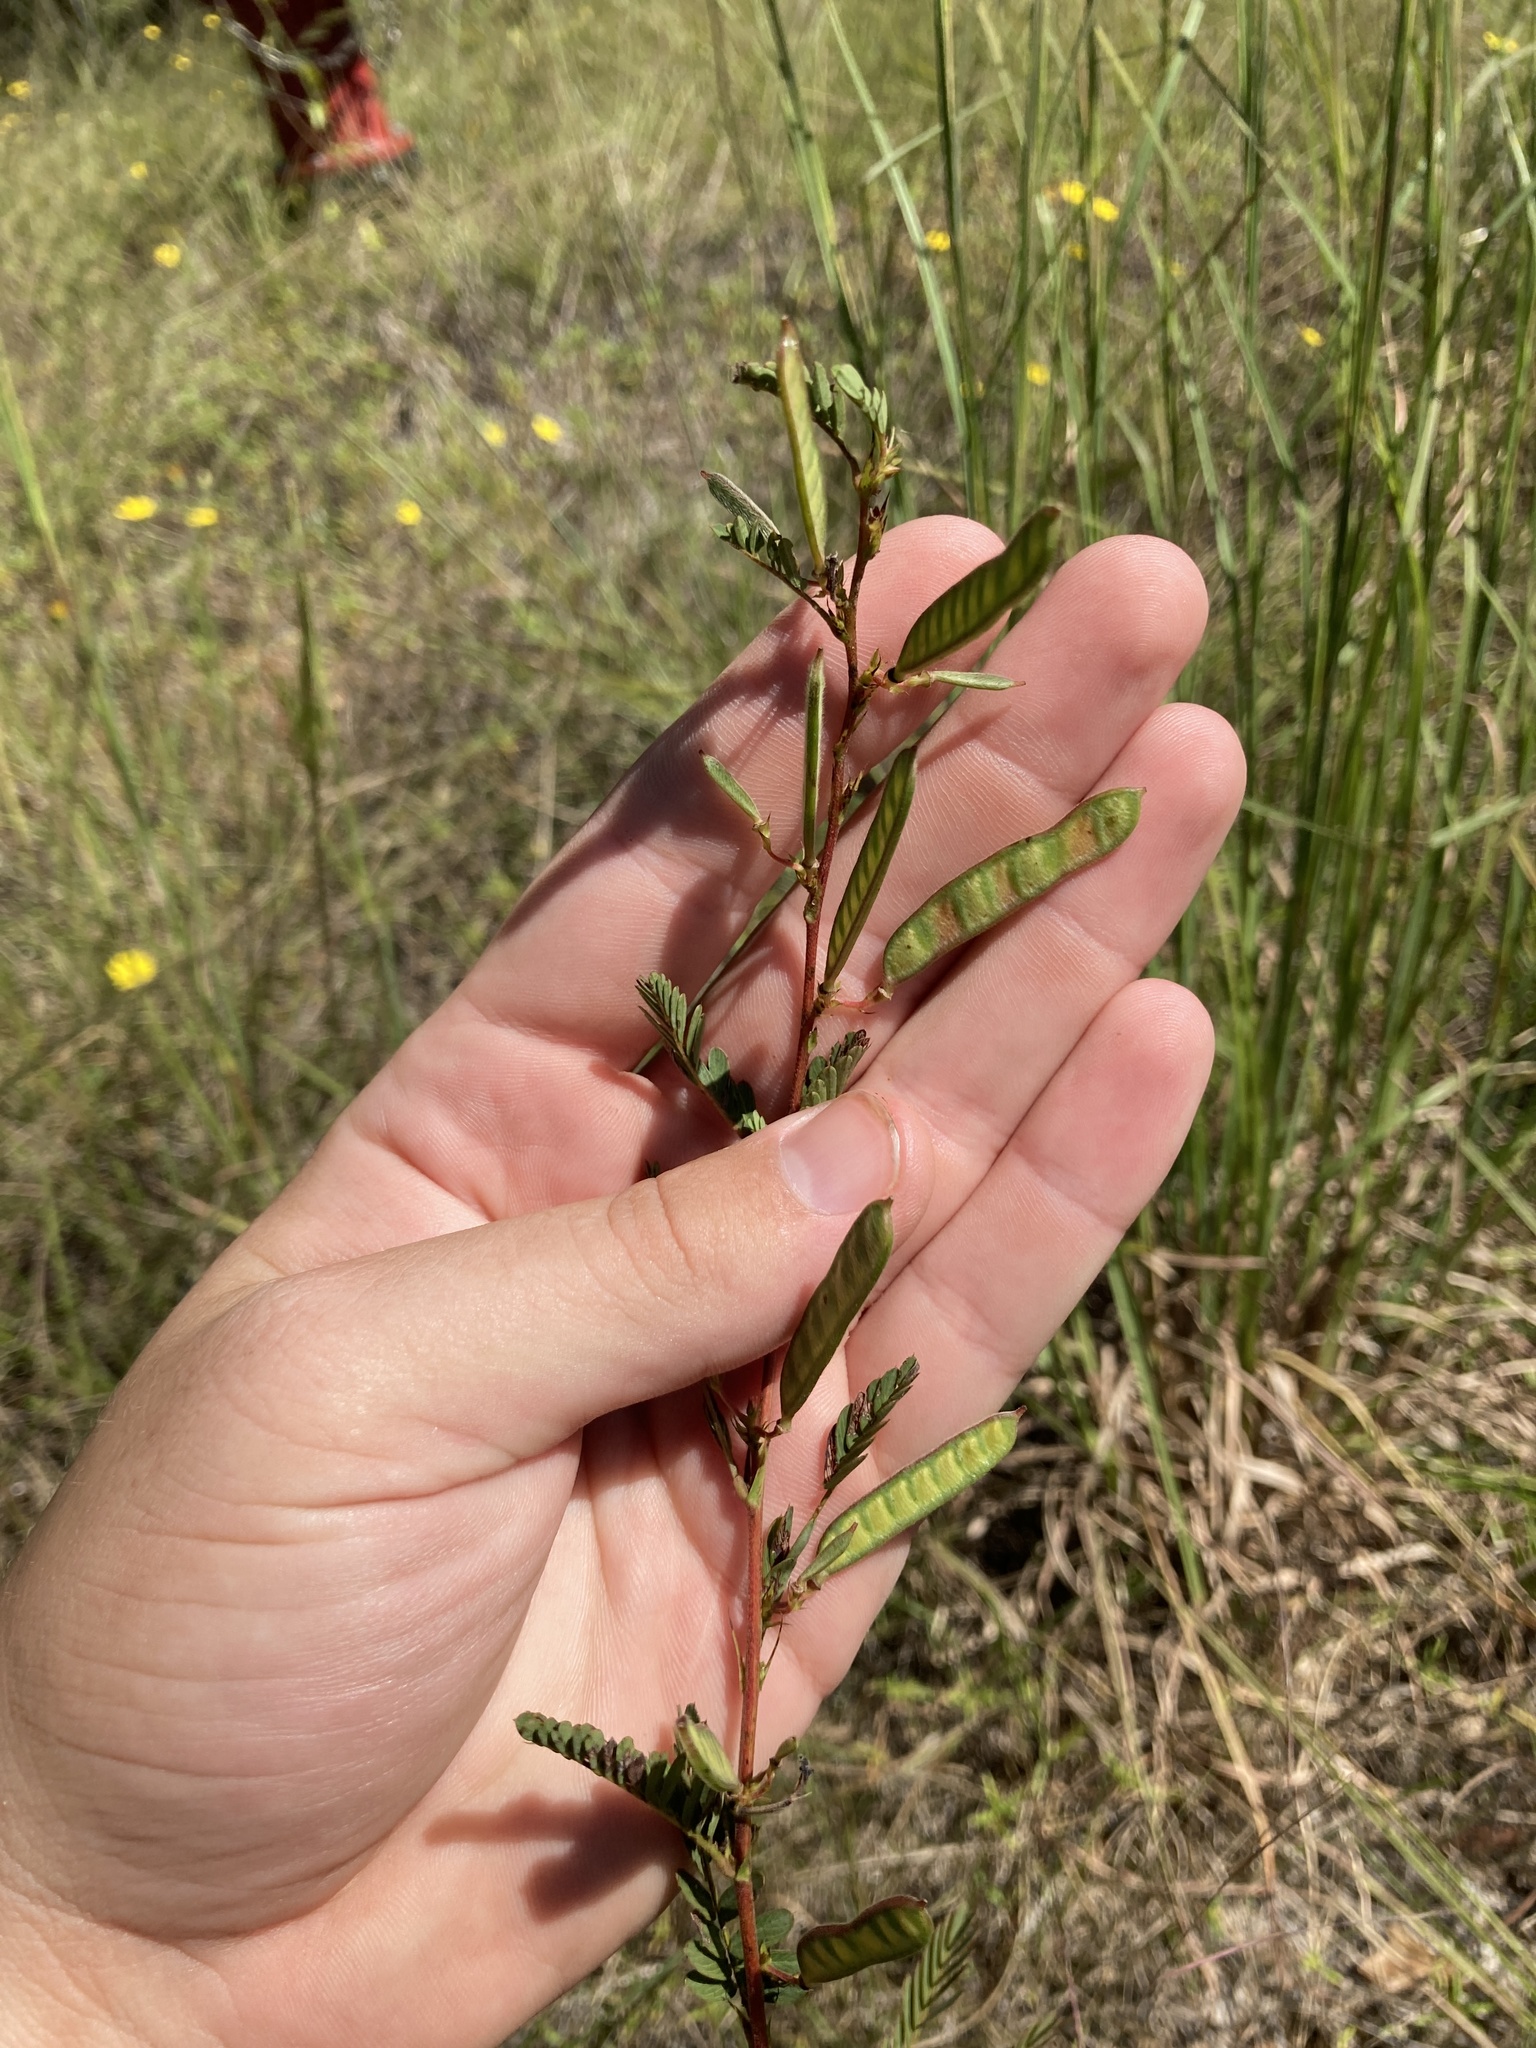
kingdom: Plantae
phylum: Tracheophyta
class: Magnoliopsida
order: Fabales
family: Fabaceae
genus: Chamaecrista
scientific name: Chamaecrista fasciculata
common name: Golden cassia
